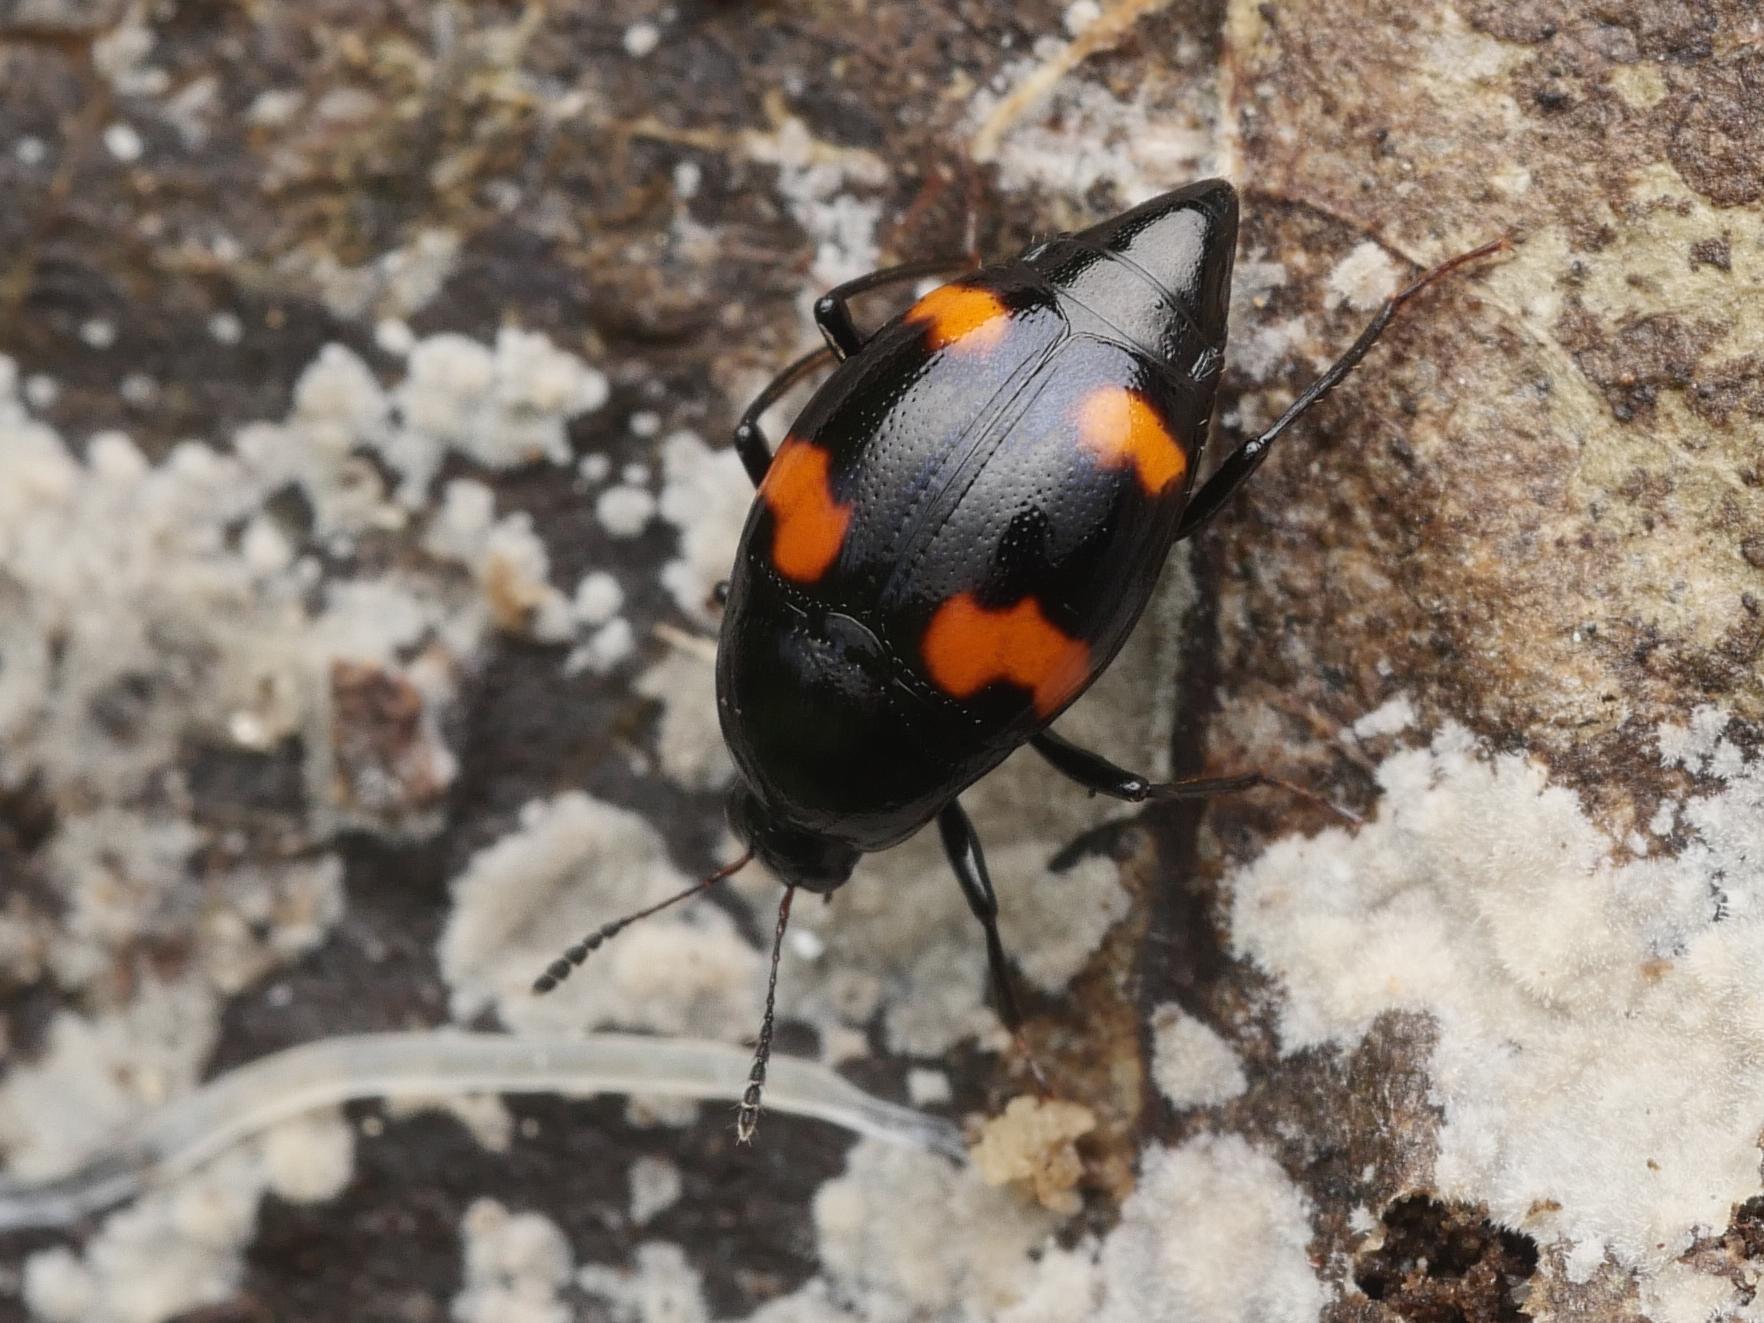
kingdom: Animalia
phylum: Arthropoda
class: Insecta
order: Coleoptera
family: Staphylinidae
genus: Scaphidium
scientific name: Scaphidium quadrimaculatum
